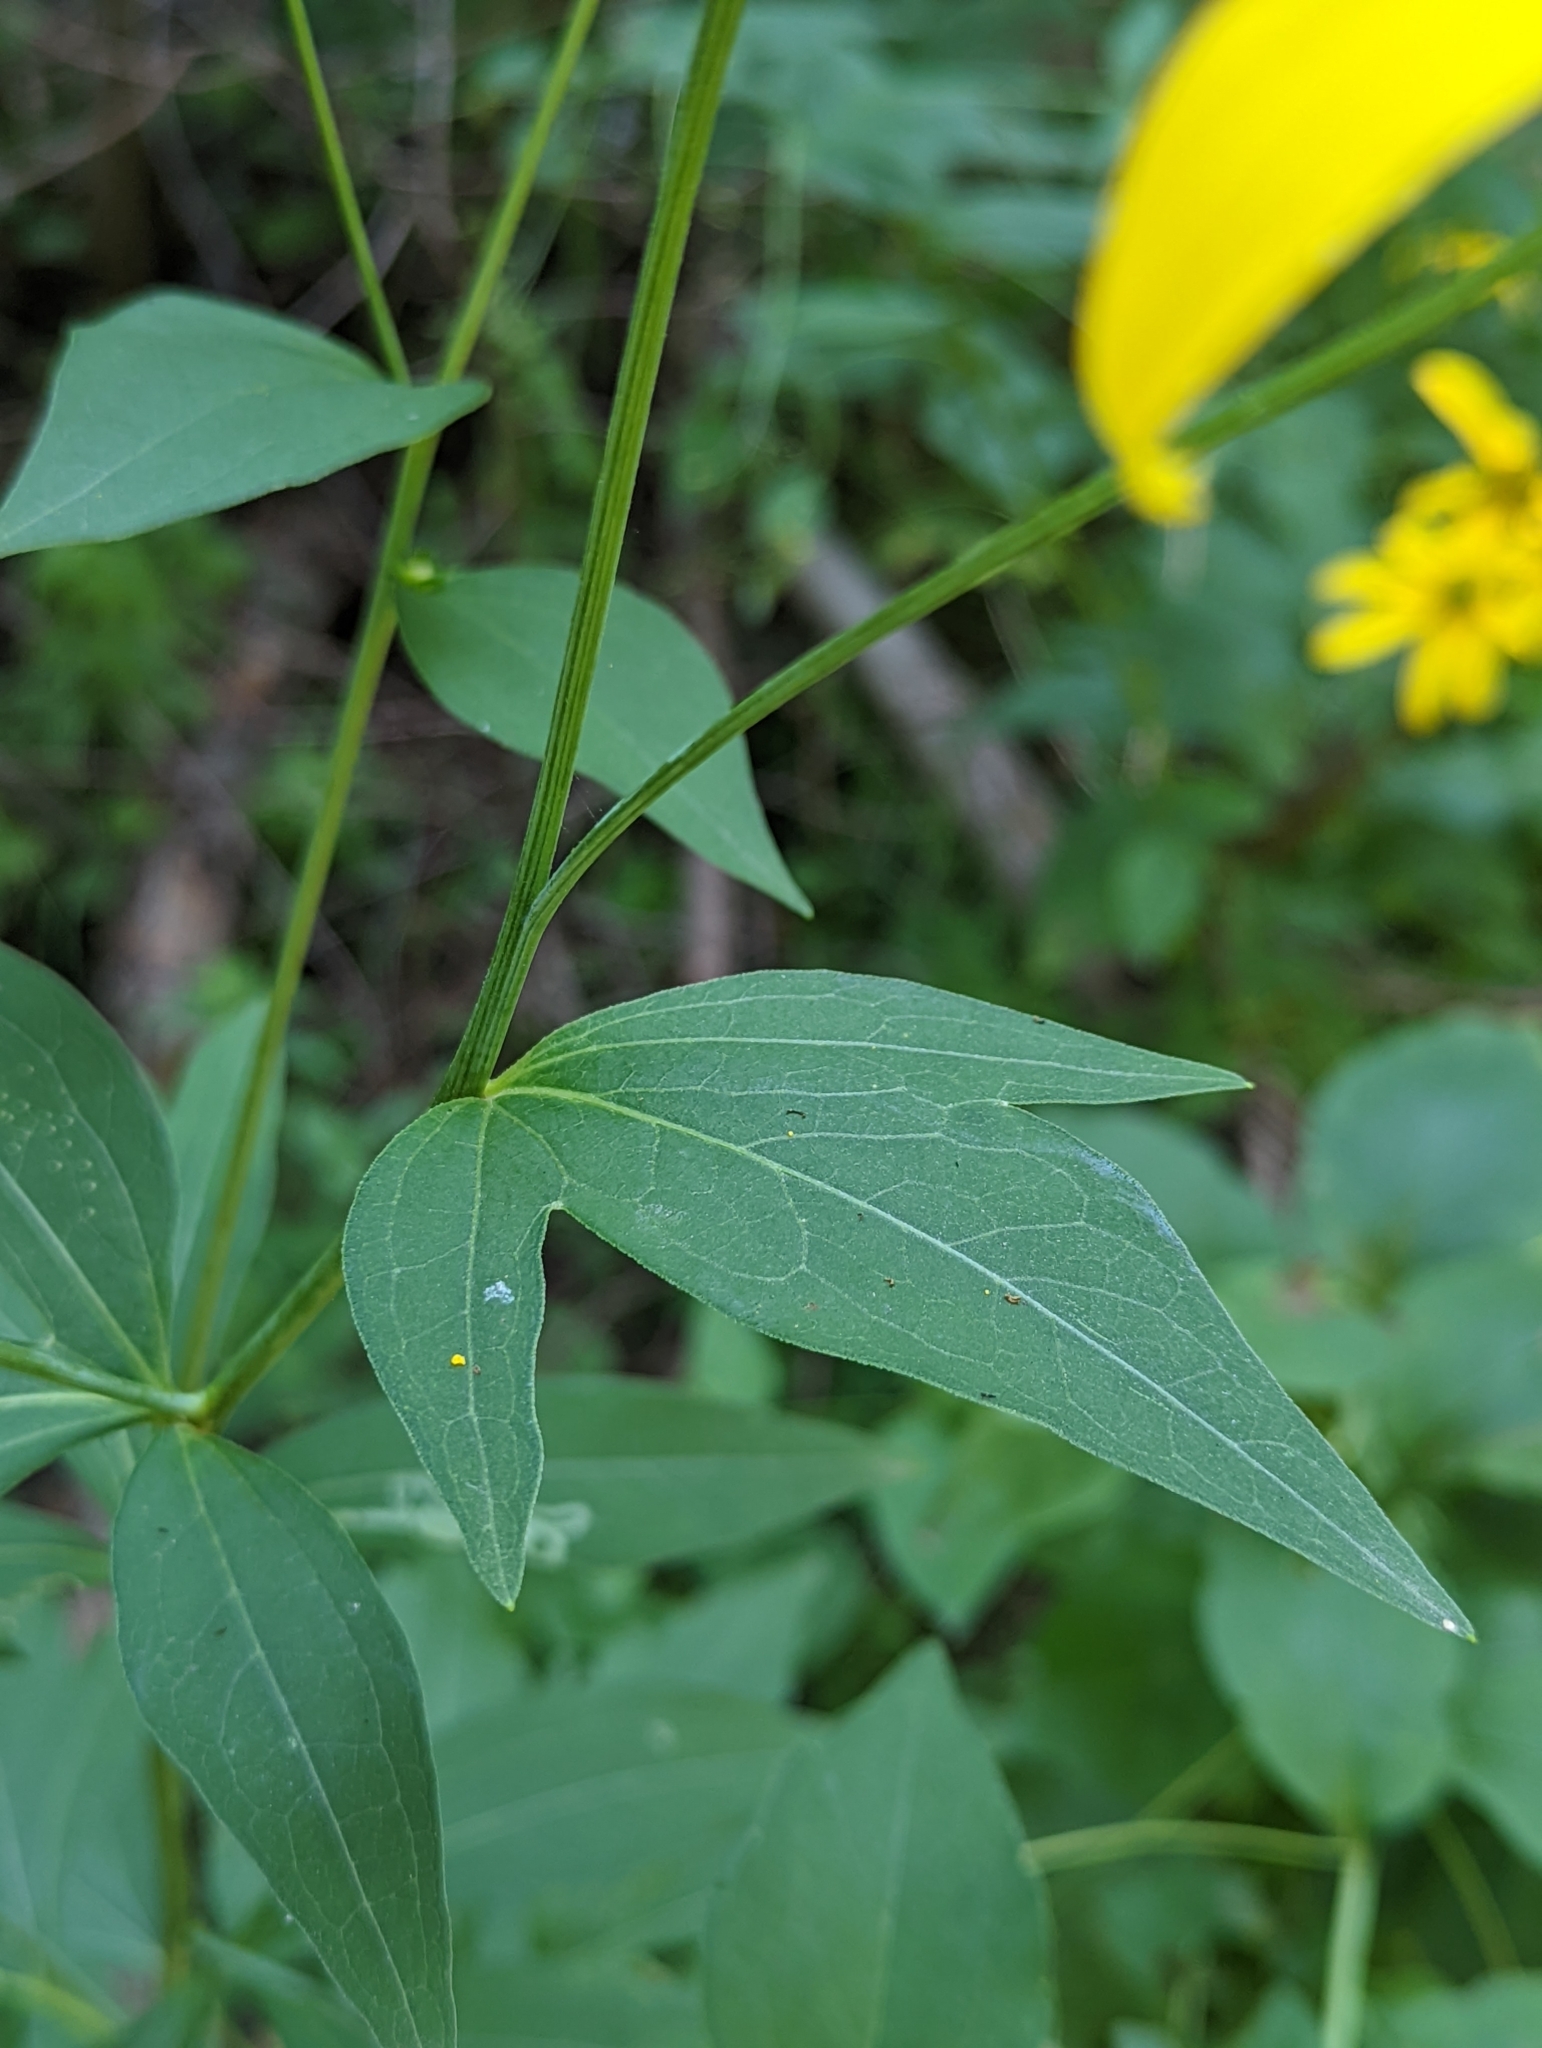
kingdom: Plantae
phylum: Tracheophyta
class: Magnoliopsida
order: Asterales
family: Asteraceae
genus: Rudbeckia
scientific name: Rudbeckia laciniata
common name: Coneflower
